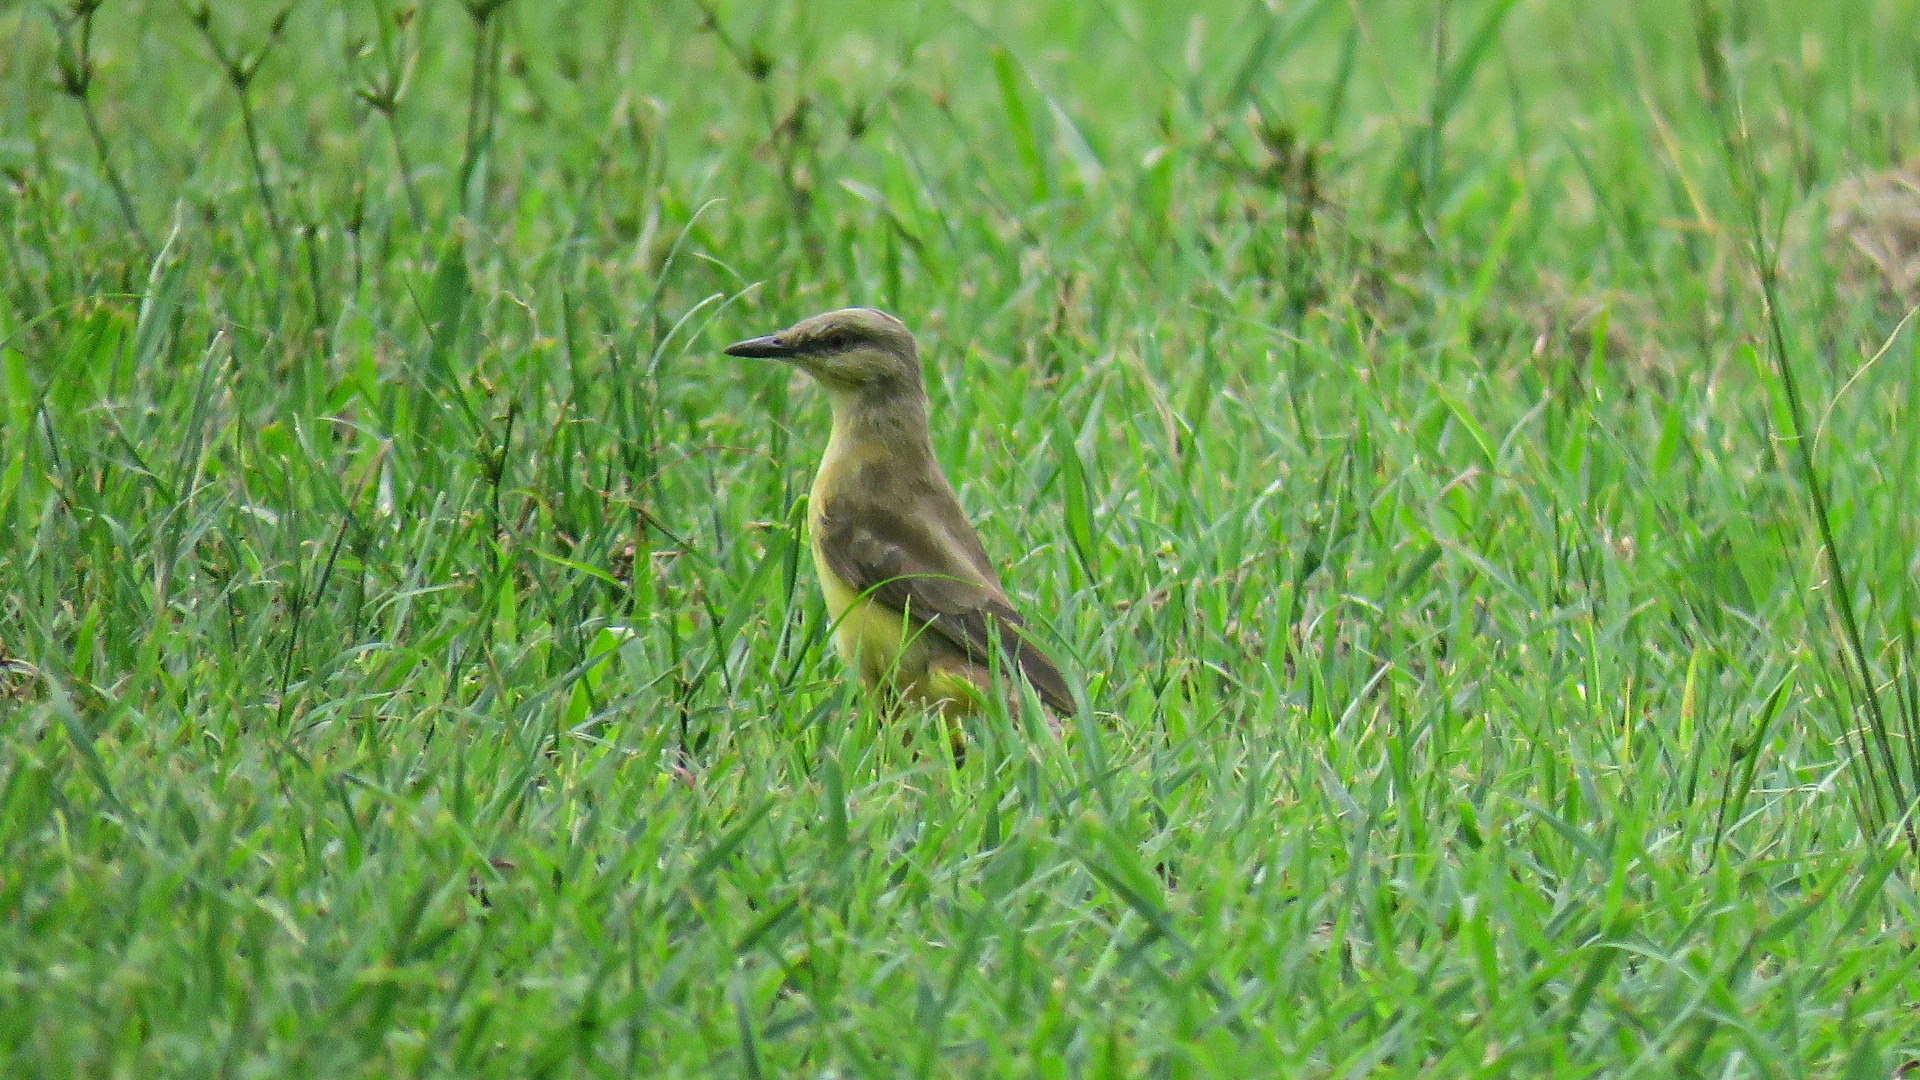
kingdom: Animalia
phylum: Chordata
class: Aves
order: Passeriformes
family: Tyrannidae
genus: Machetornis
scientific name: Machetornis rixosa
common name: Cattle tyrant
